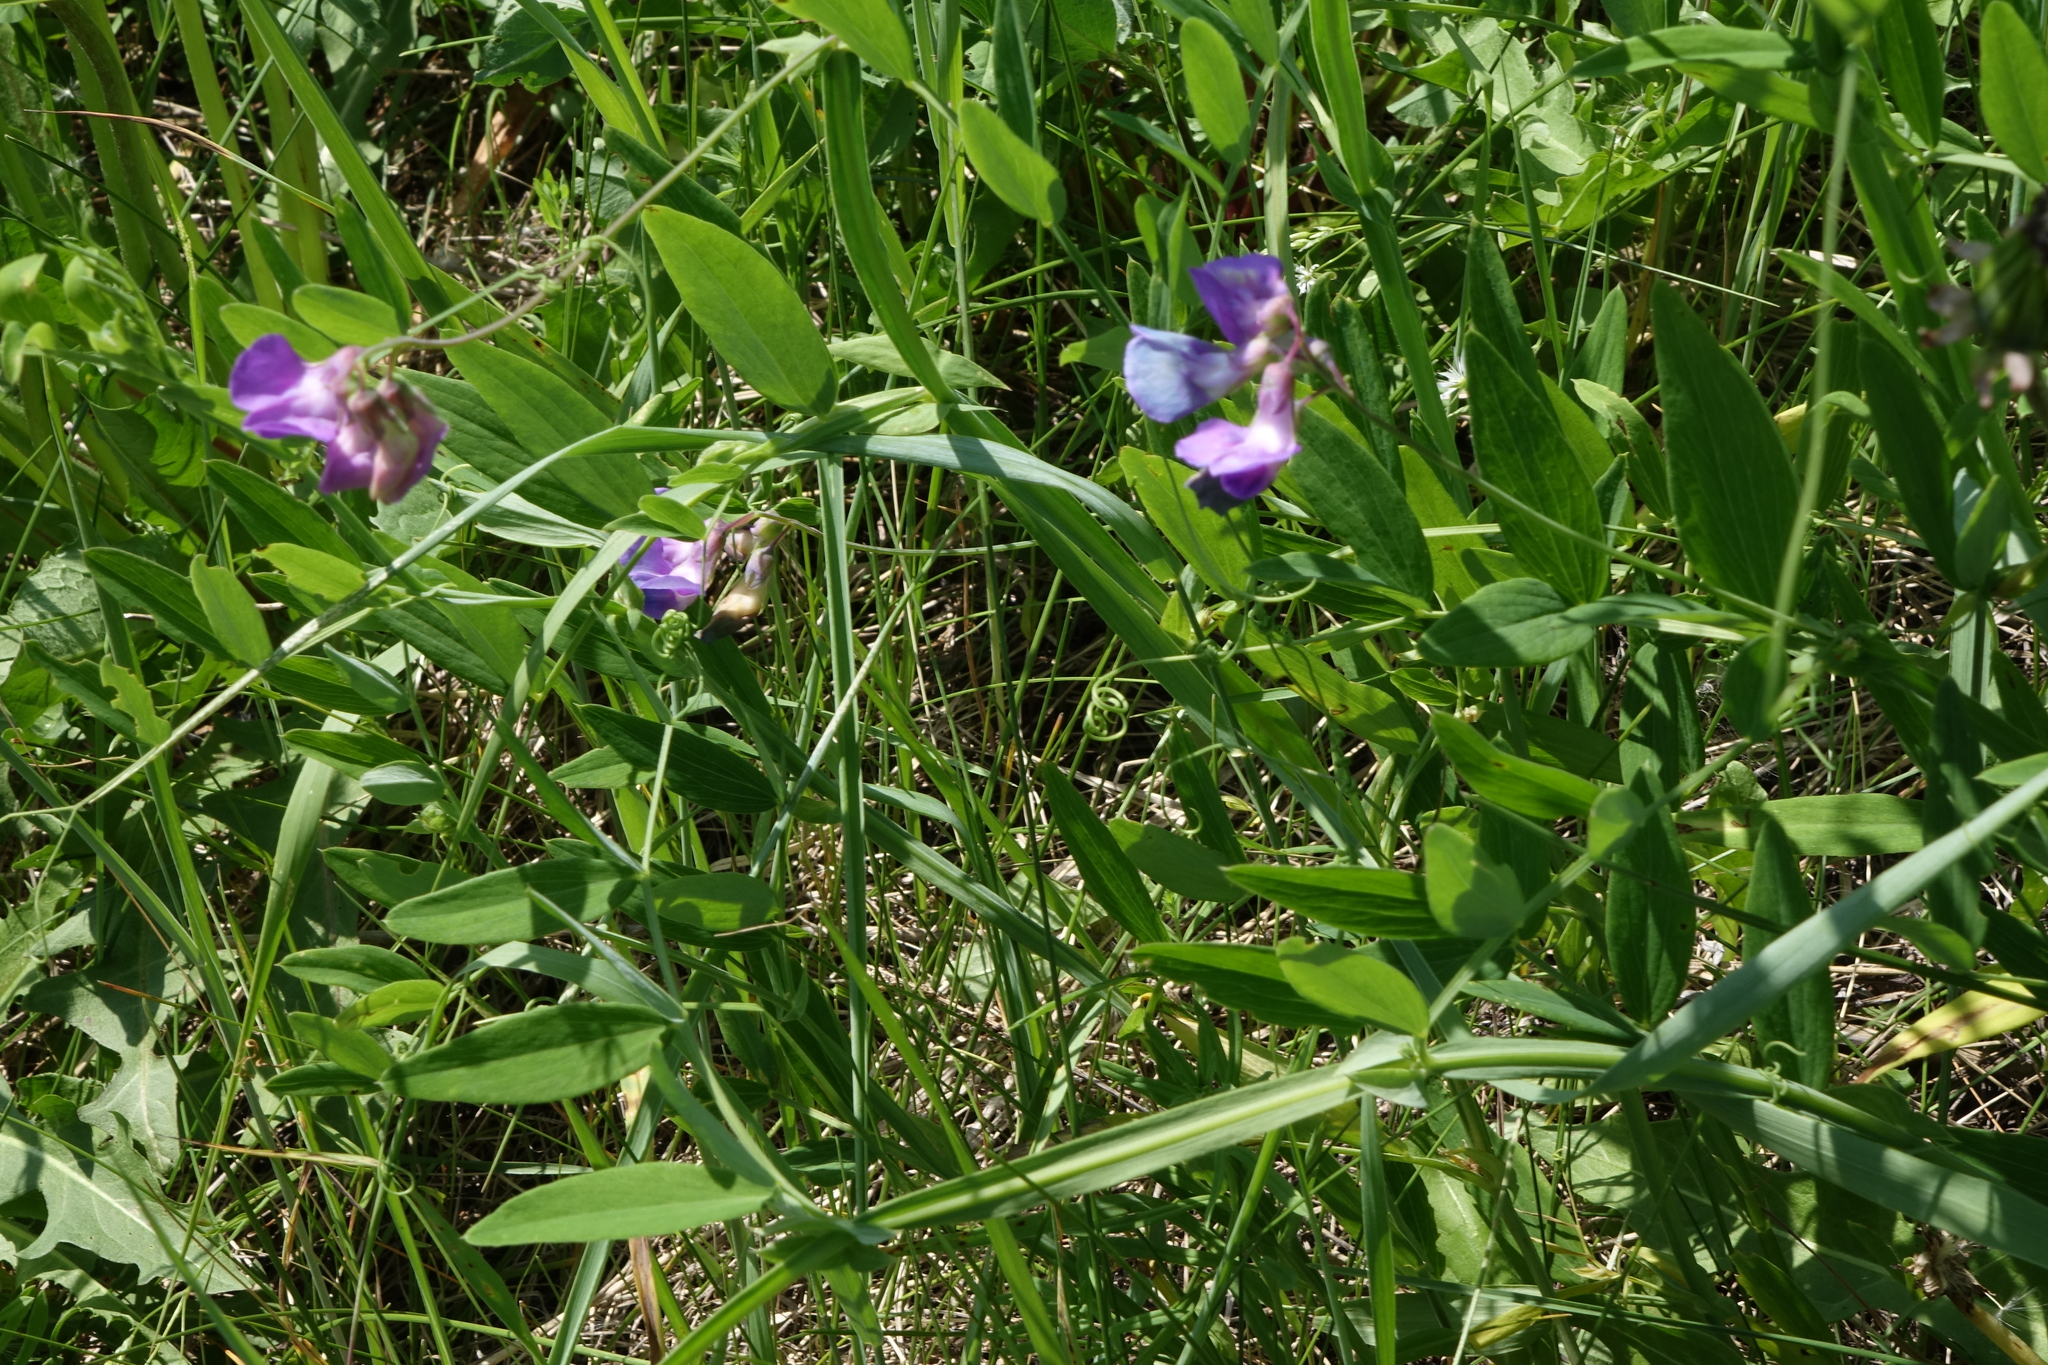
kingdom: Plantae
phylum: Tracheophyta
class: Magnoliopsida
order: Fabales
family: Fabaceae
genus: Lathyrus
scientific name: Lathyrus palustris
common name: Marsh pea
